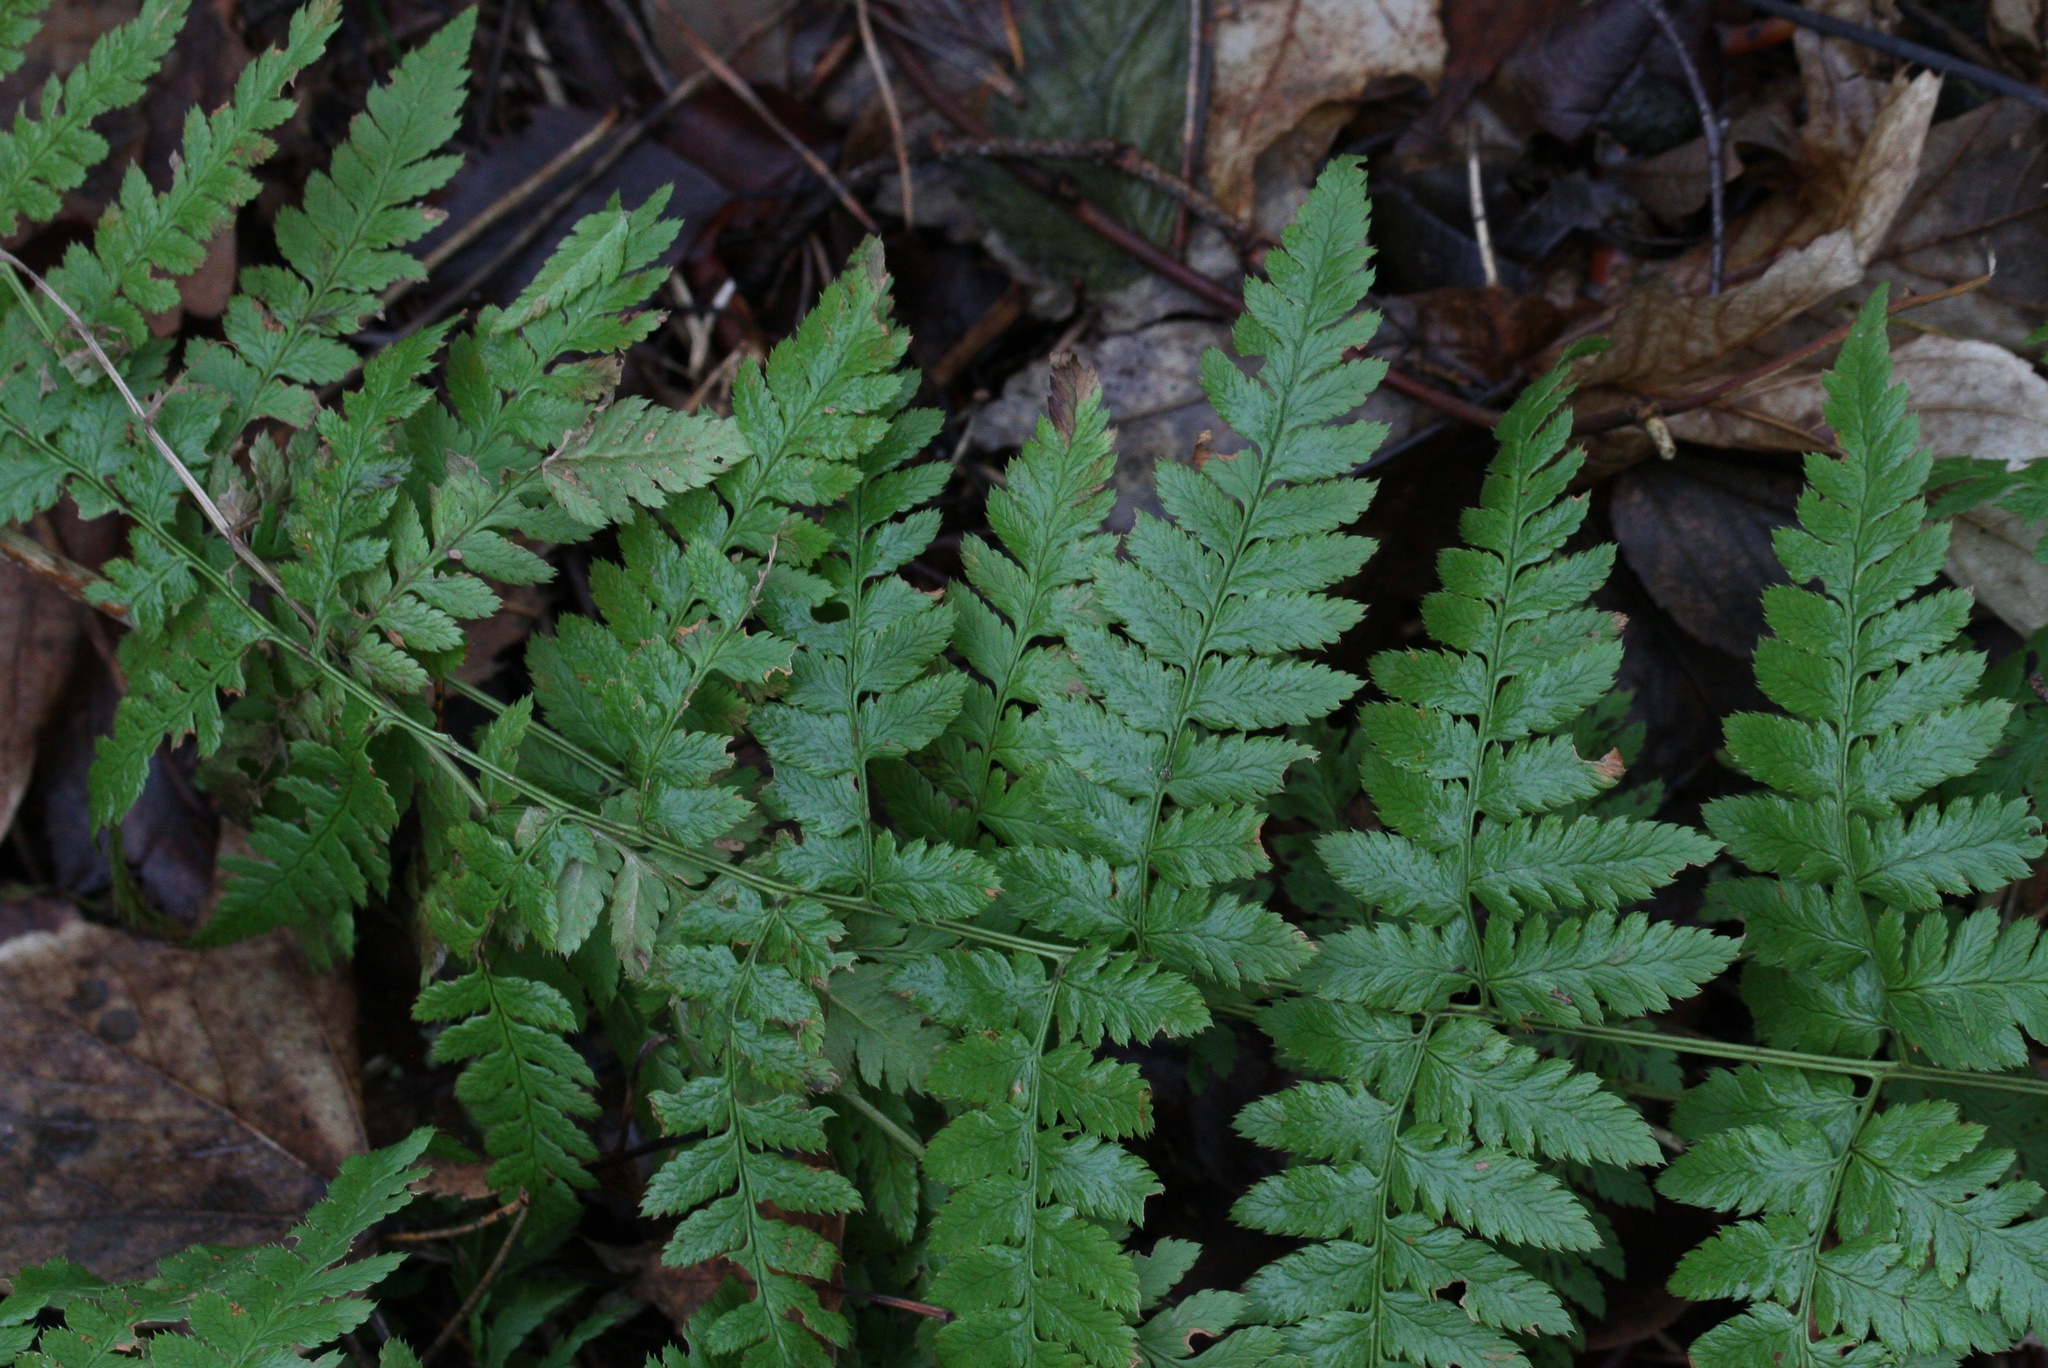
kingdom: Plantae
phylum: Tracheophyta
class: Polypodiopsida
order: Polypodiales
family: Dryopteridaceae
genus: Dryopteris
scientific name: Dryopteris carthusiana
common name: Narrow buckler-fern
